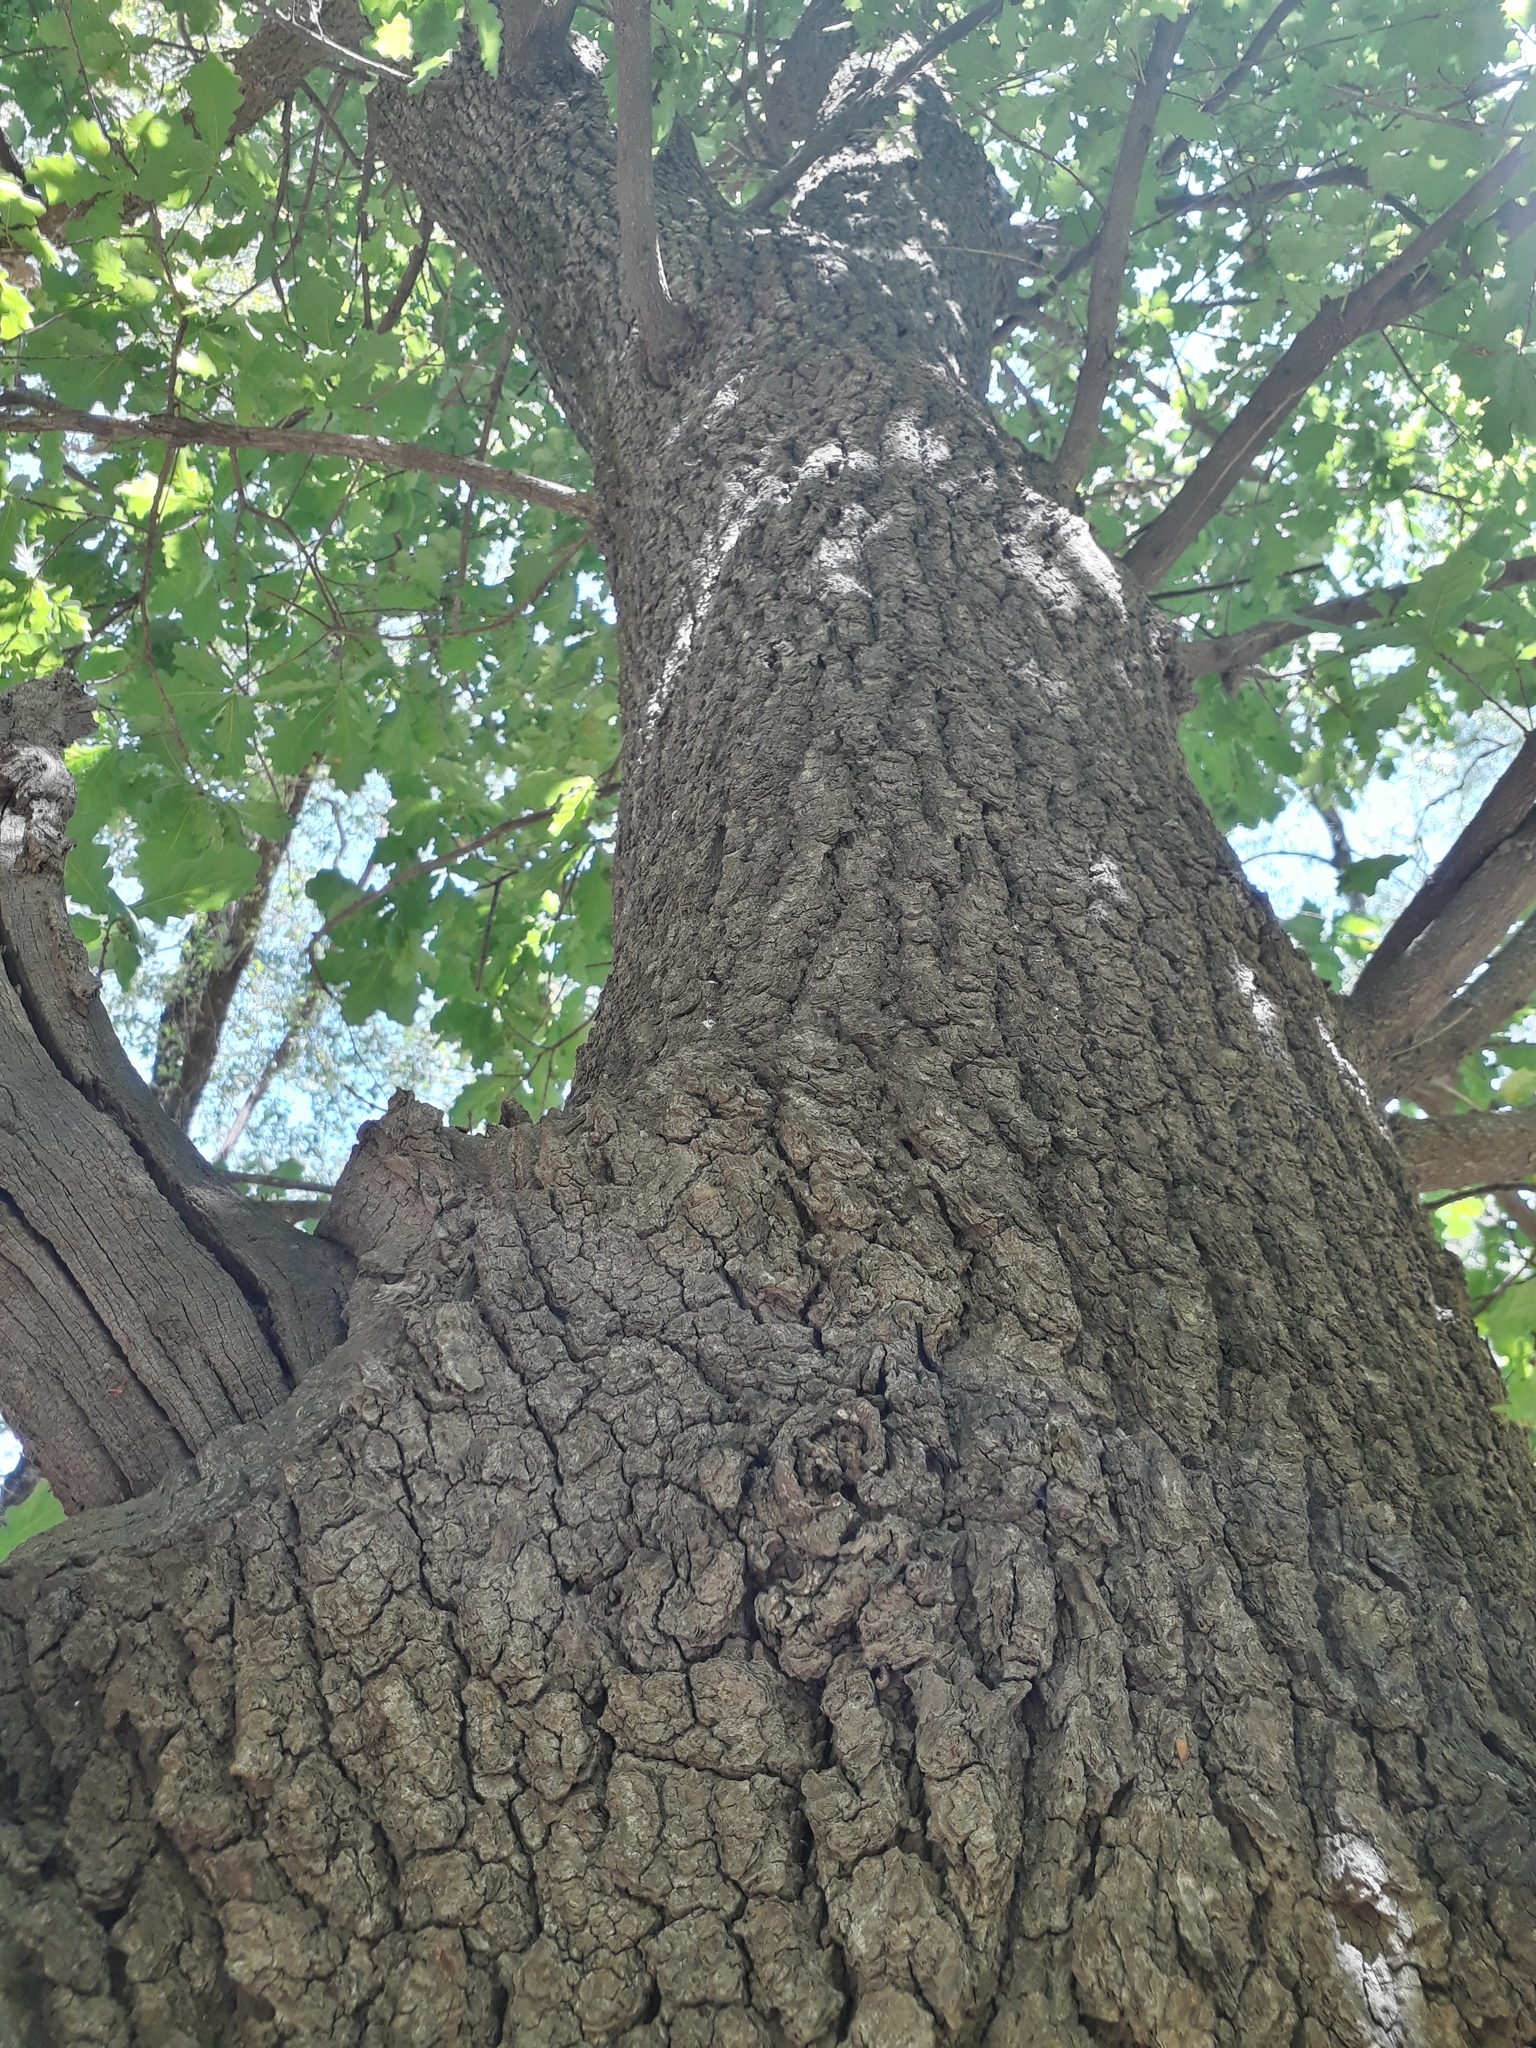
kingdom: Plantae
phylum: Tracheophyta
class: Magnoliopsida
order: Fagales
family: Fagaceae
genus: Quercus
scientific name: Quercus robur
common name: Pedunculate oak
